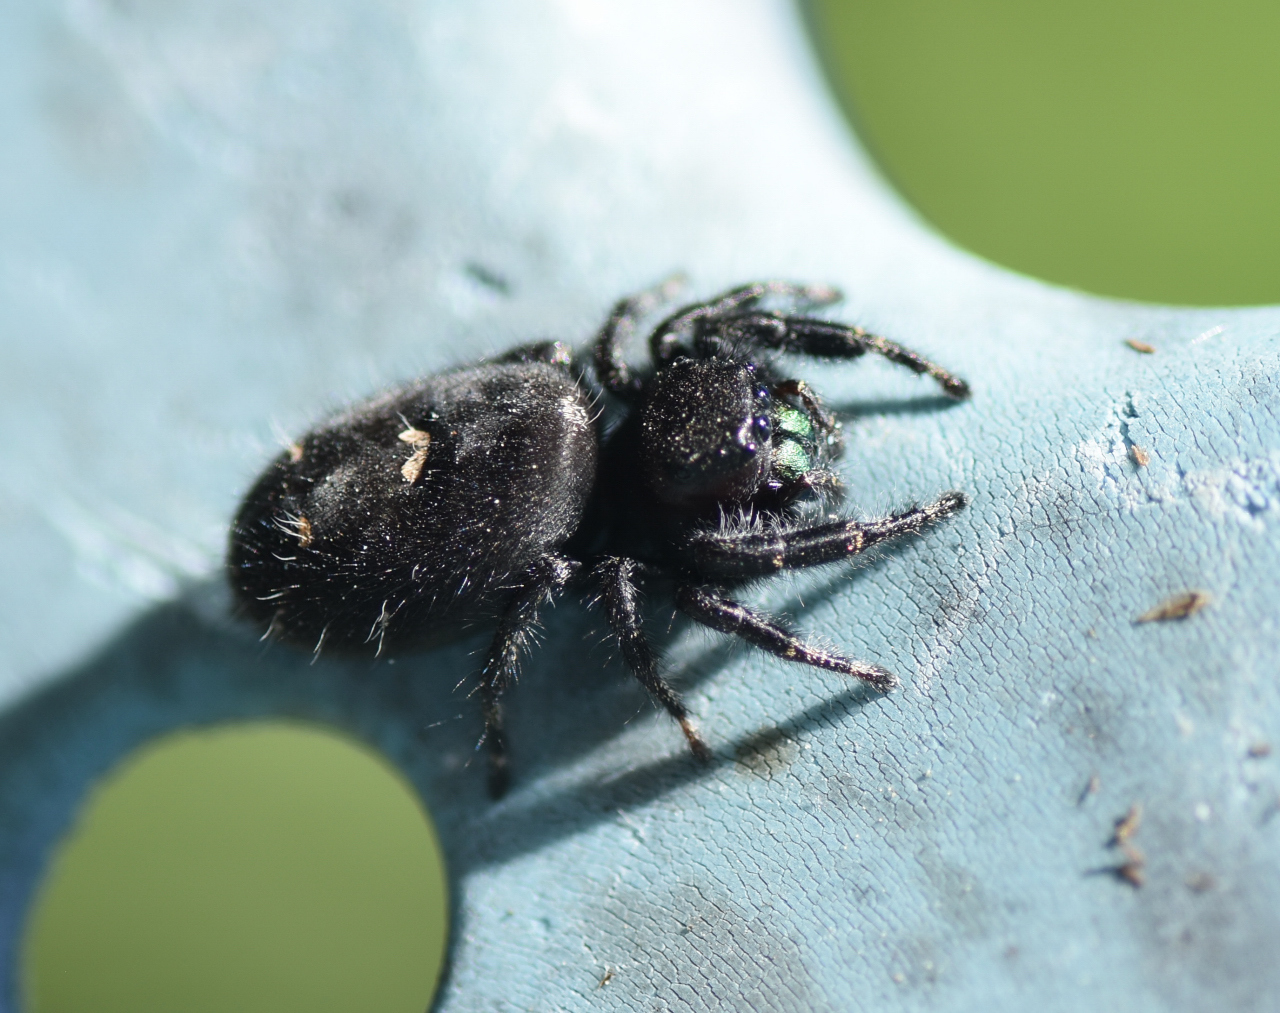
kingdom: Animalia
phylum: Arthropoda
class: Arachnida
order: Araneae
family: Salticidae
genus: Phidippus
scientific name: Phidippus audax
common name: Bold jumper
